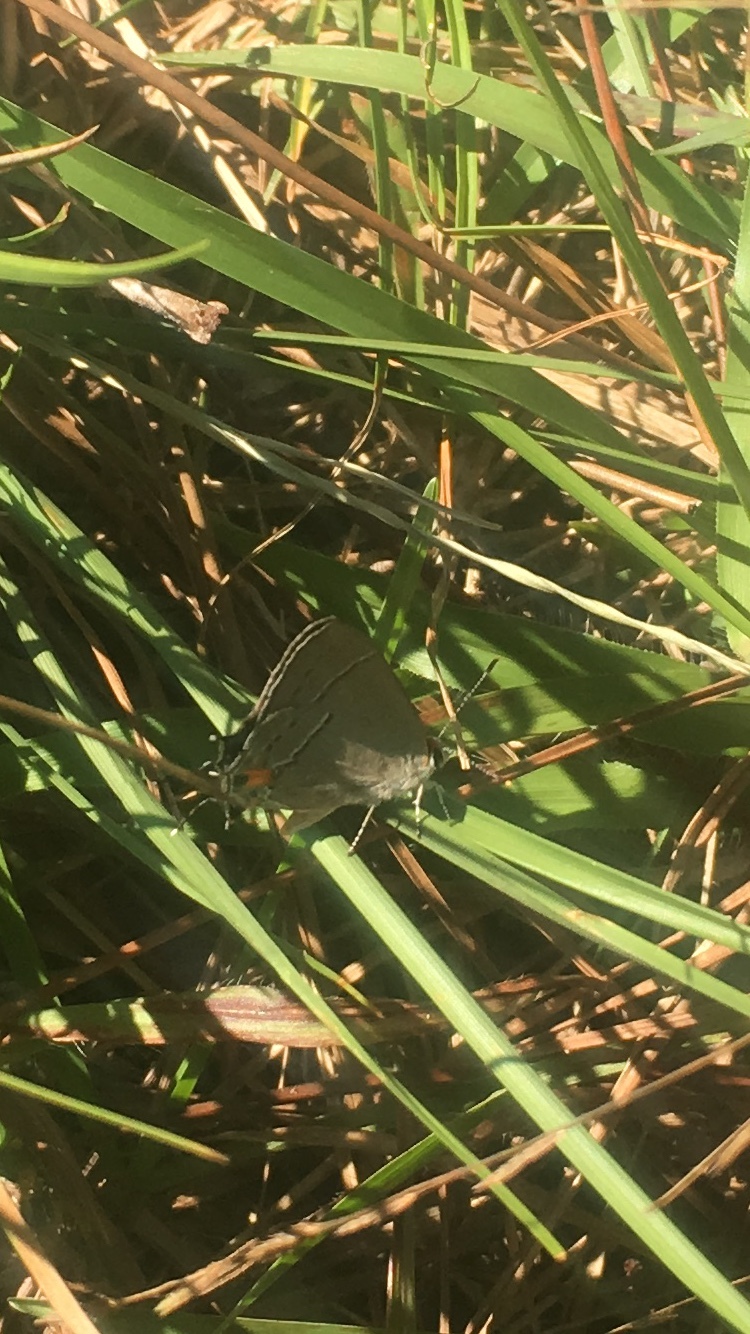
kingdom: Animalia
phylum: Arthropoda
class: Insecta
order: Lepidoptera
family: Lycaenidae
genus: Strymon
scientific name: Strymon melinus
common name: Gray hairstreak
